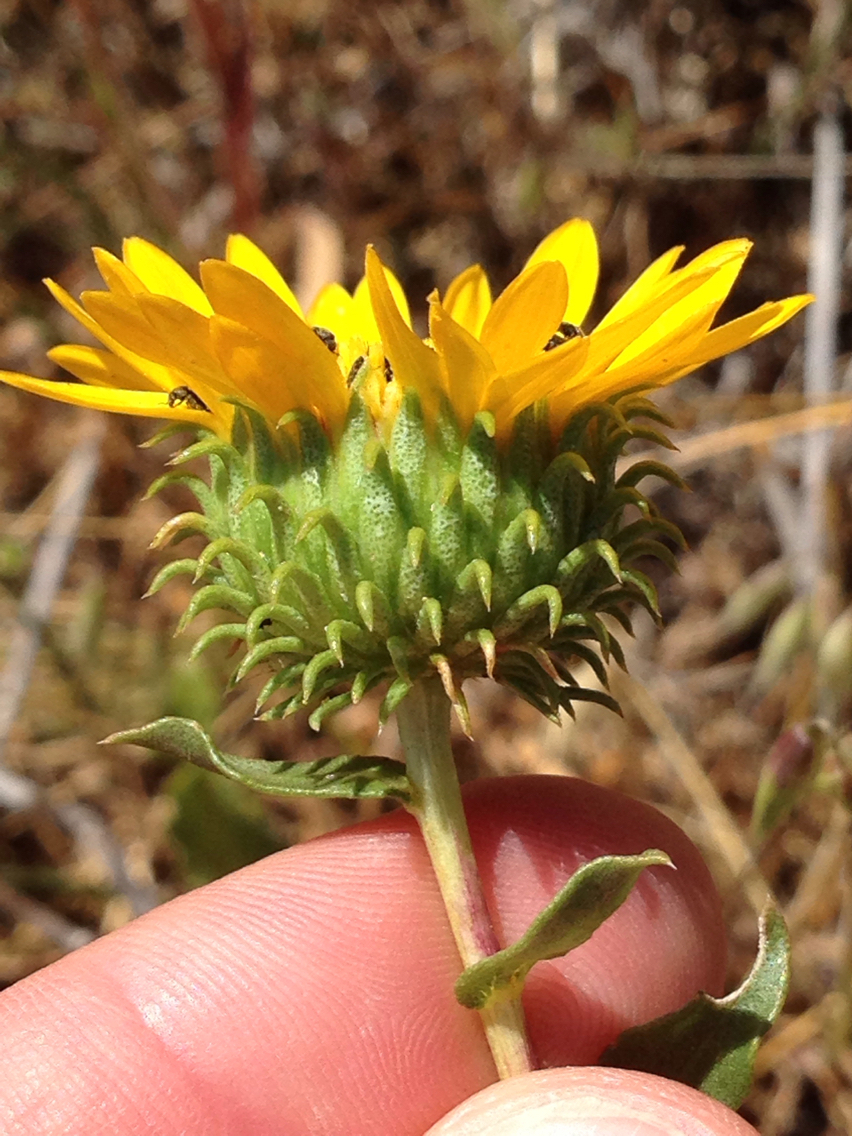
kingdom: Plantae
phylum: Tracheophyta
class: Magnoliopsida
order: Asterales
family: Asteraceae
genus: Grindelia
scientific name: Grindelia hirsutula
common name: Hairy gumweed
